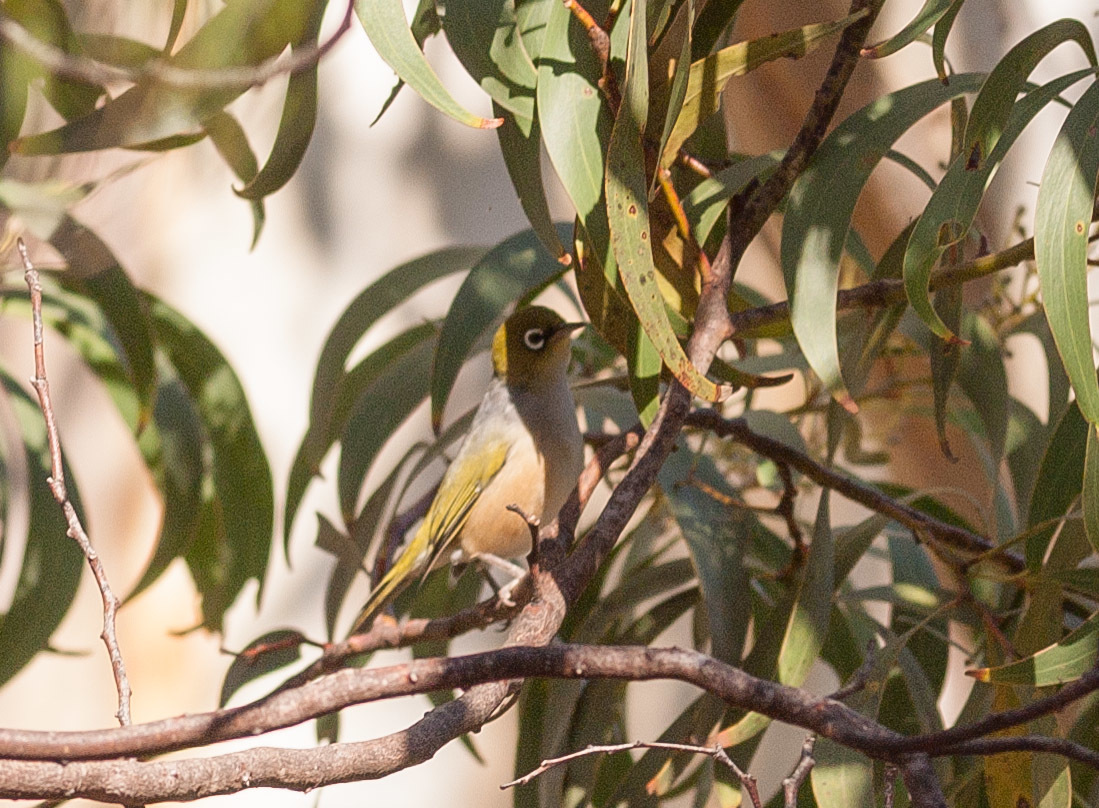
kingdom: Animalia
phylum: Chordata
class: Aves
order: Passeriformes
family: Zosteropidae
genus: Zosterops
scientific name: Zosterops lateralis
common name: Silvereye
